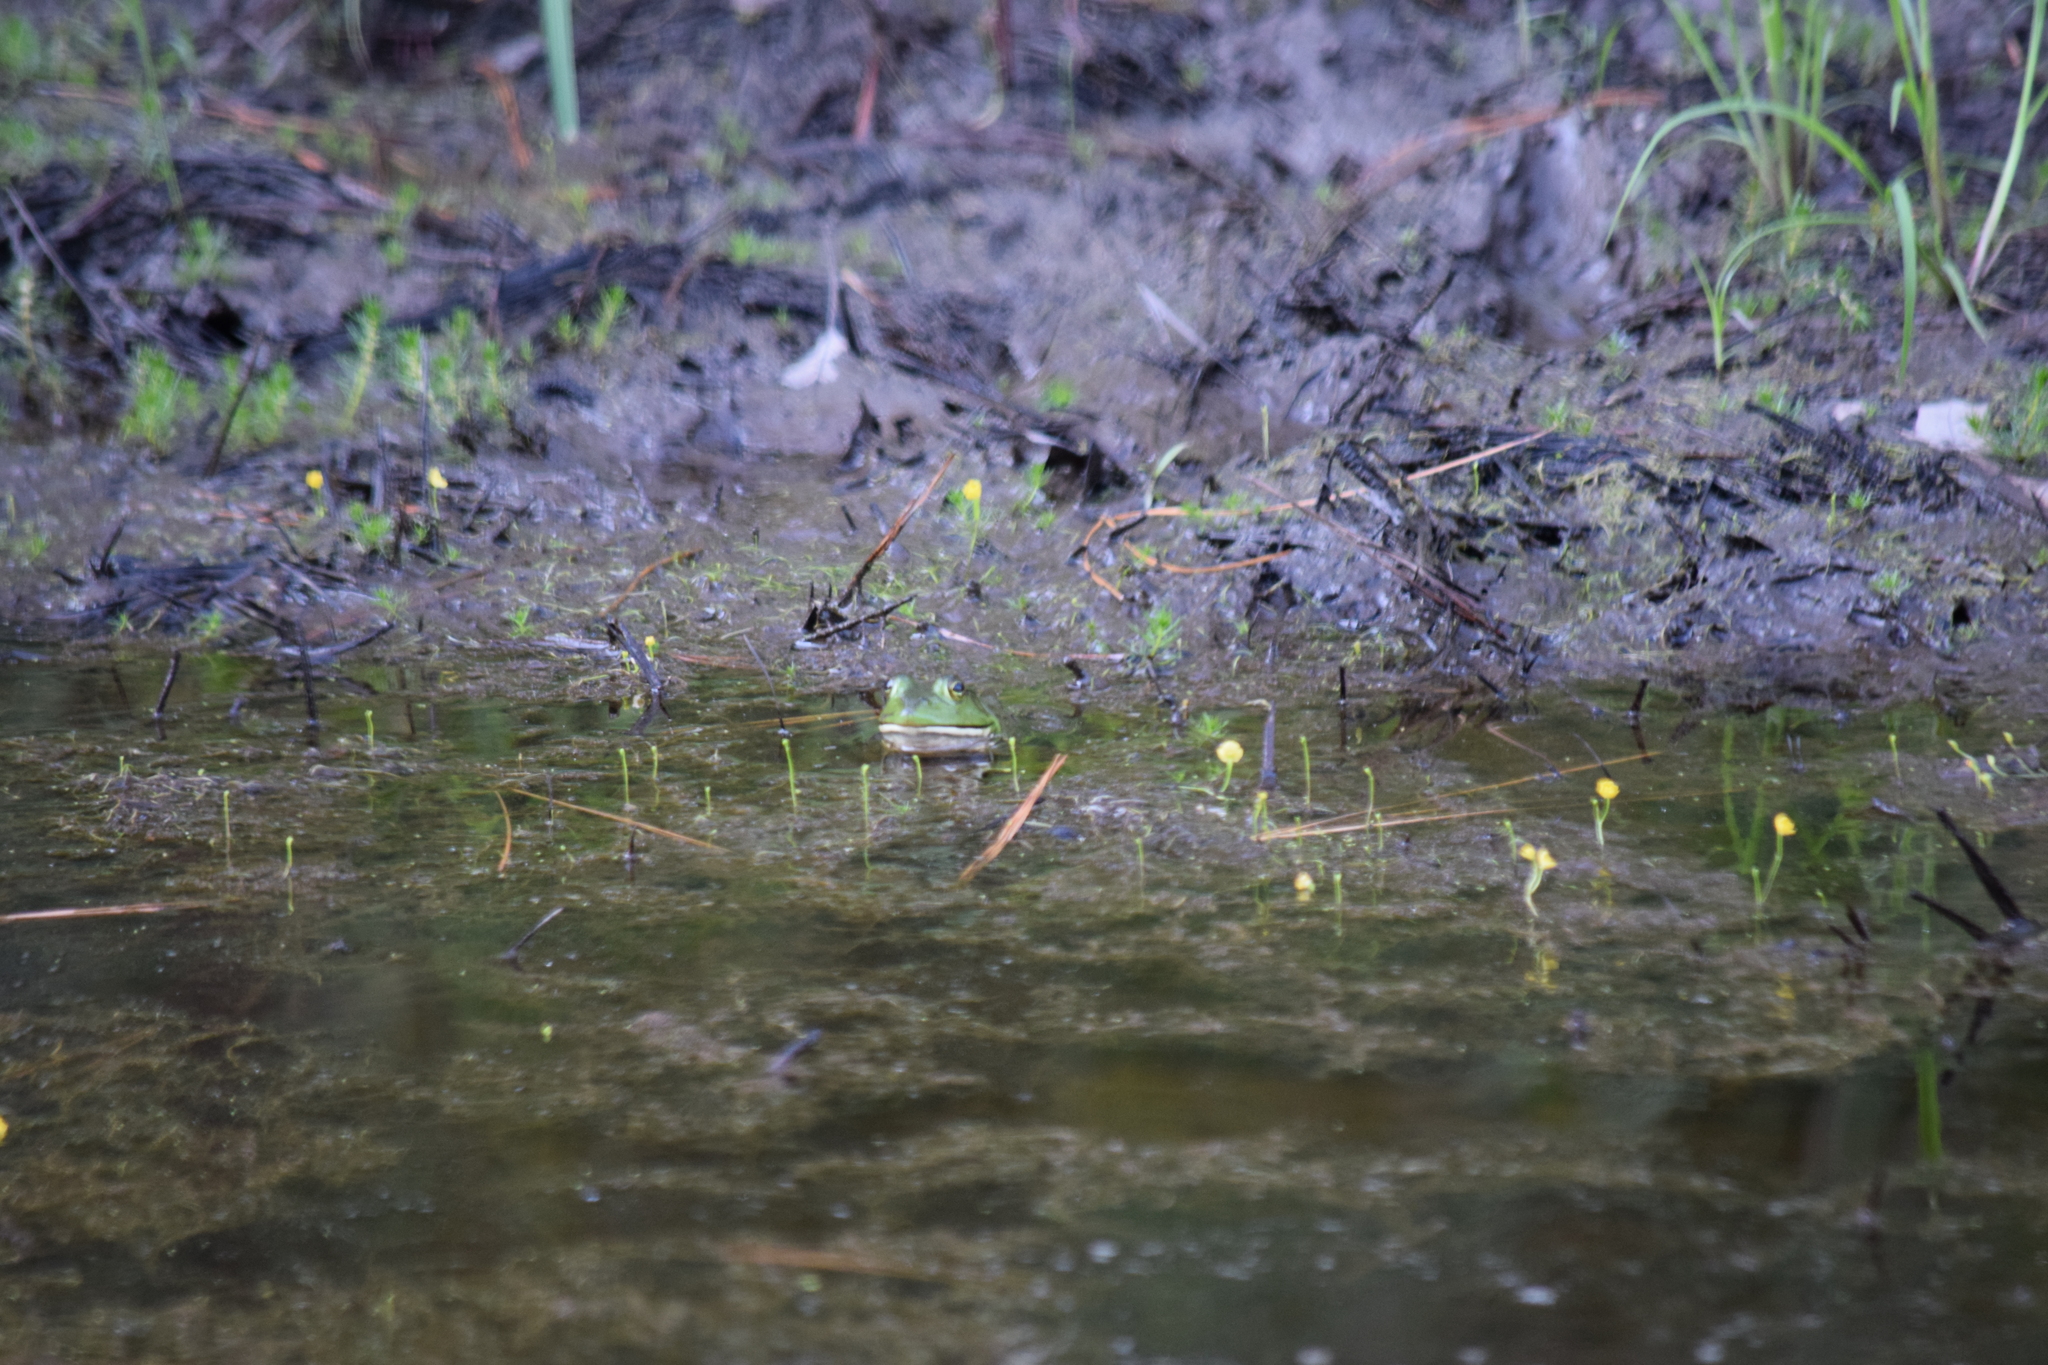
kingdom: Animalia
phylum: Chordata
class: Amphibia
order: Anura
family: Ranidae
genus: Lithobates
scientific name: Lithobates catesbeianus
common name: American bullfrog
